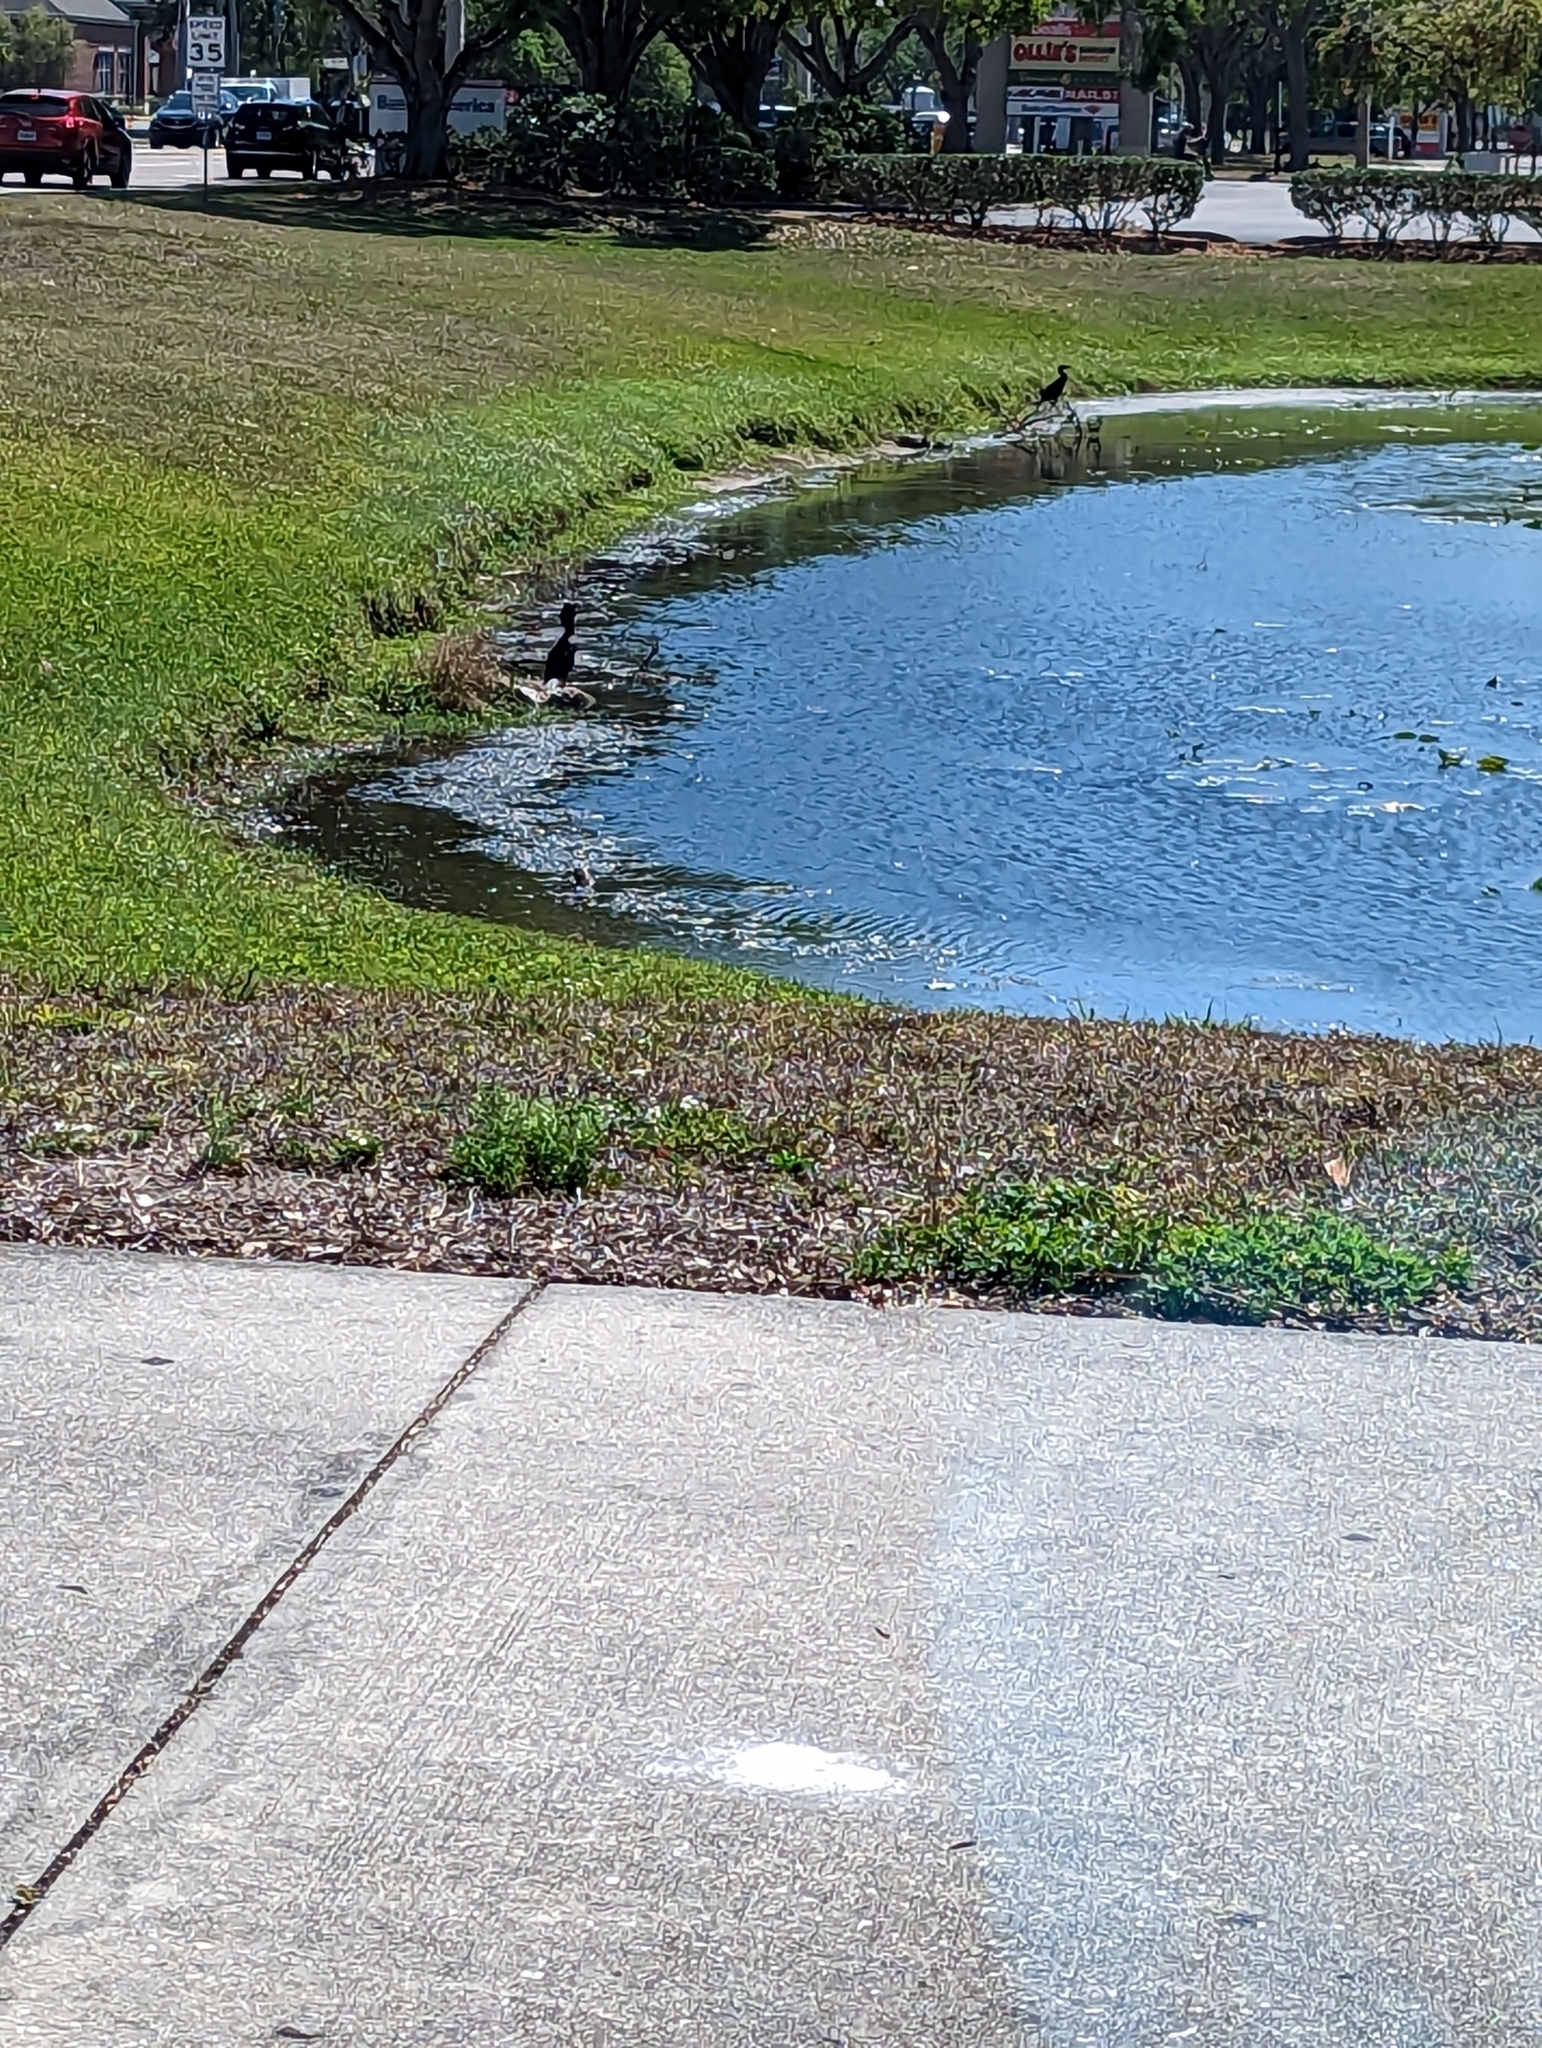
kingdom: Animalia
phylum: Chordata
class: Aves
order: Suliformes
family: Phalacrocoracidae
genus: Phalacrocorax
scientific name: Phalacrocorax auritus
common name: Double-crested cormorant
